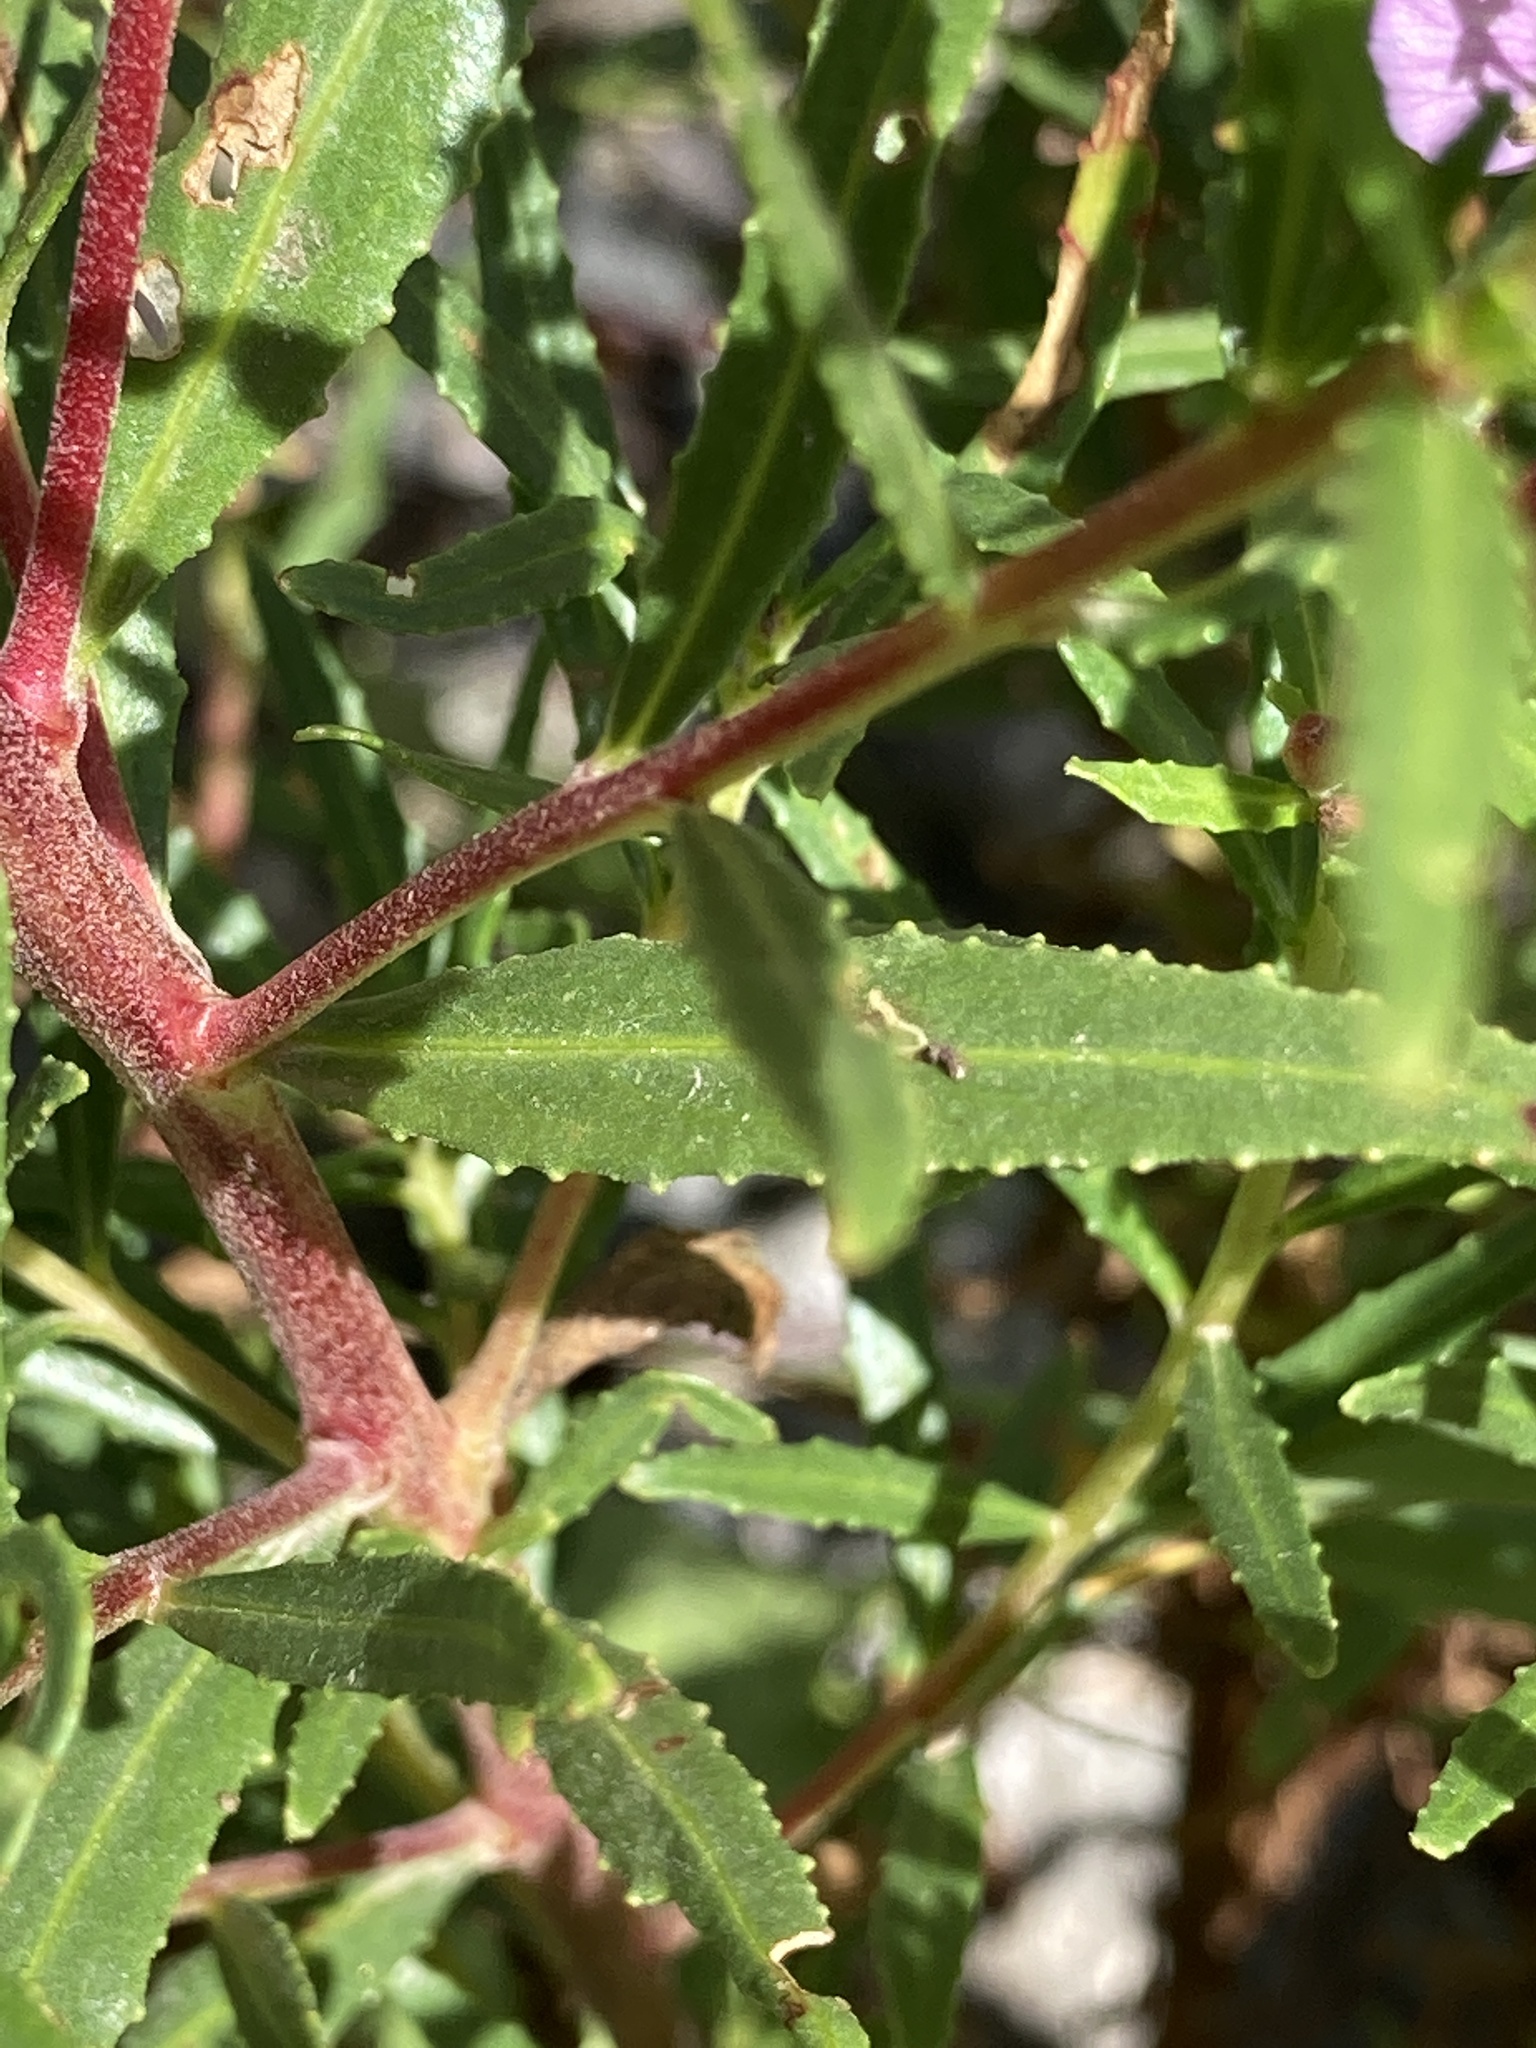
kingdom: Plantae
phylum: Tracheophyta
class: Magnoliopsida
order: Myrtales
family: Onagraceae
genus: Chamaenerion
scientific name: Chamaenerion colchicum
